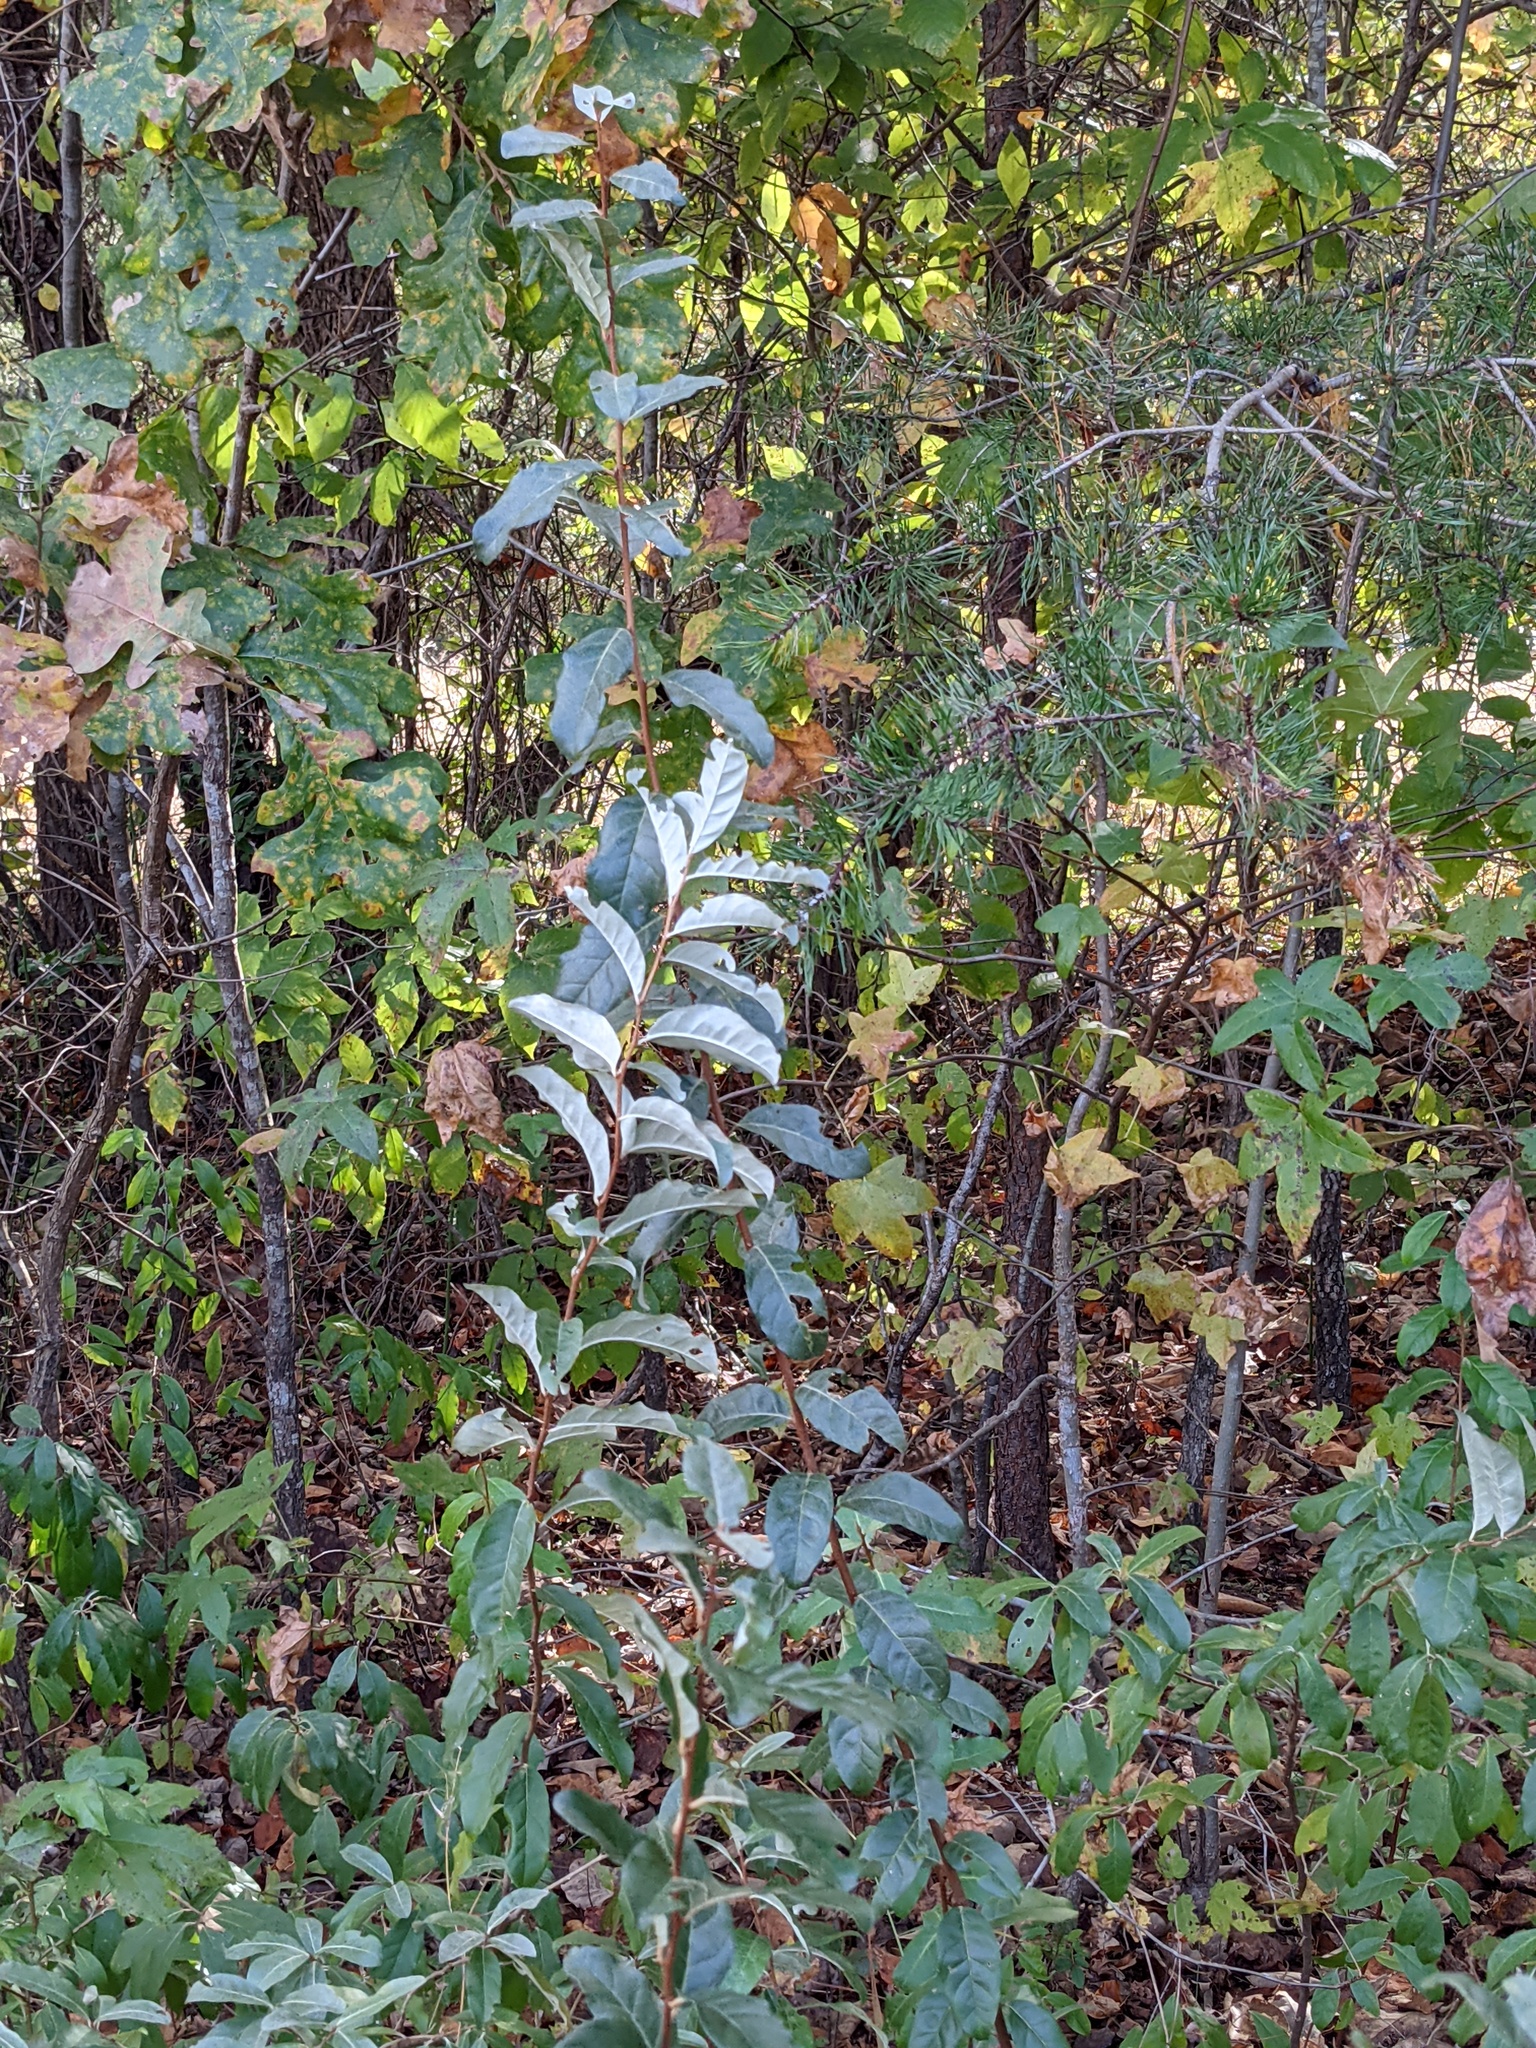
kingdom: Plantae
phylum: Tracheophyta
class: Magnoliopsida
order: Rosales
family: Elaeagnaceae
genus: Elaeagnus
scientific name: Elaeagnus umbellata
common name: Autumn olive
